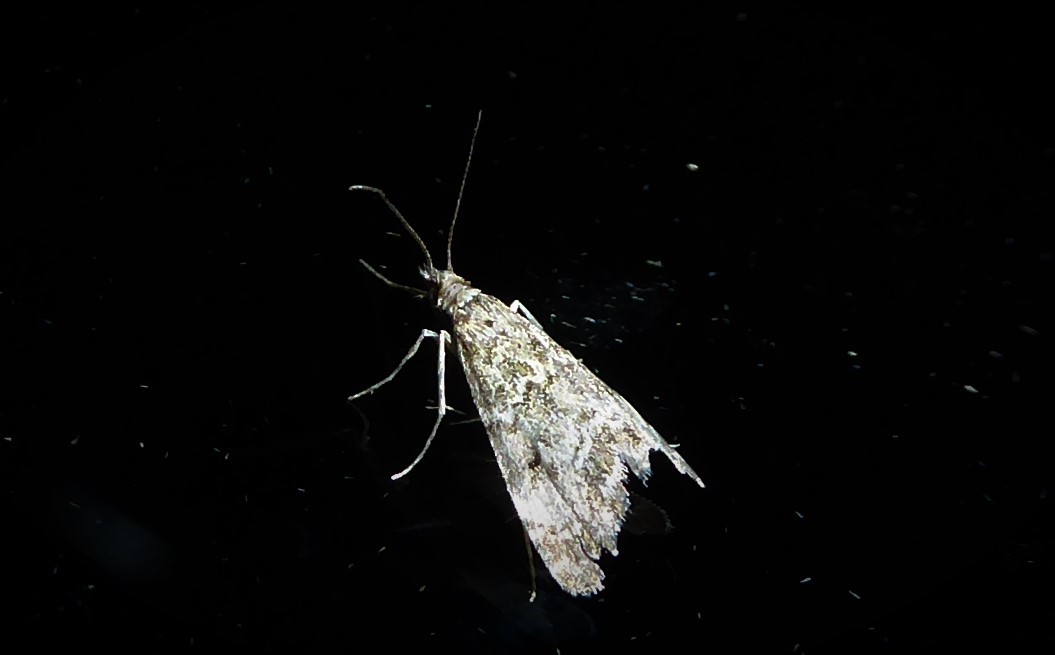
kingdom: Animalia
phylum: Arthropoda
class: Insecta
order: Lepidoptera
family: Crambidae
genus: Glaucocharis
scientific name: Glaucocharis elaina
